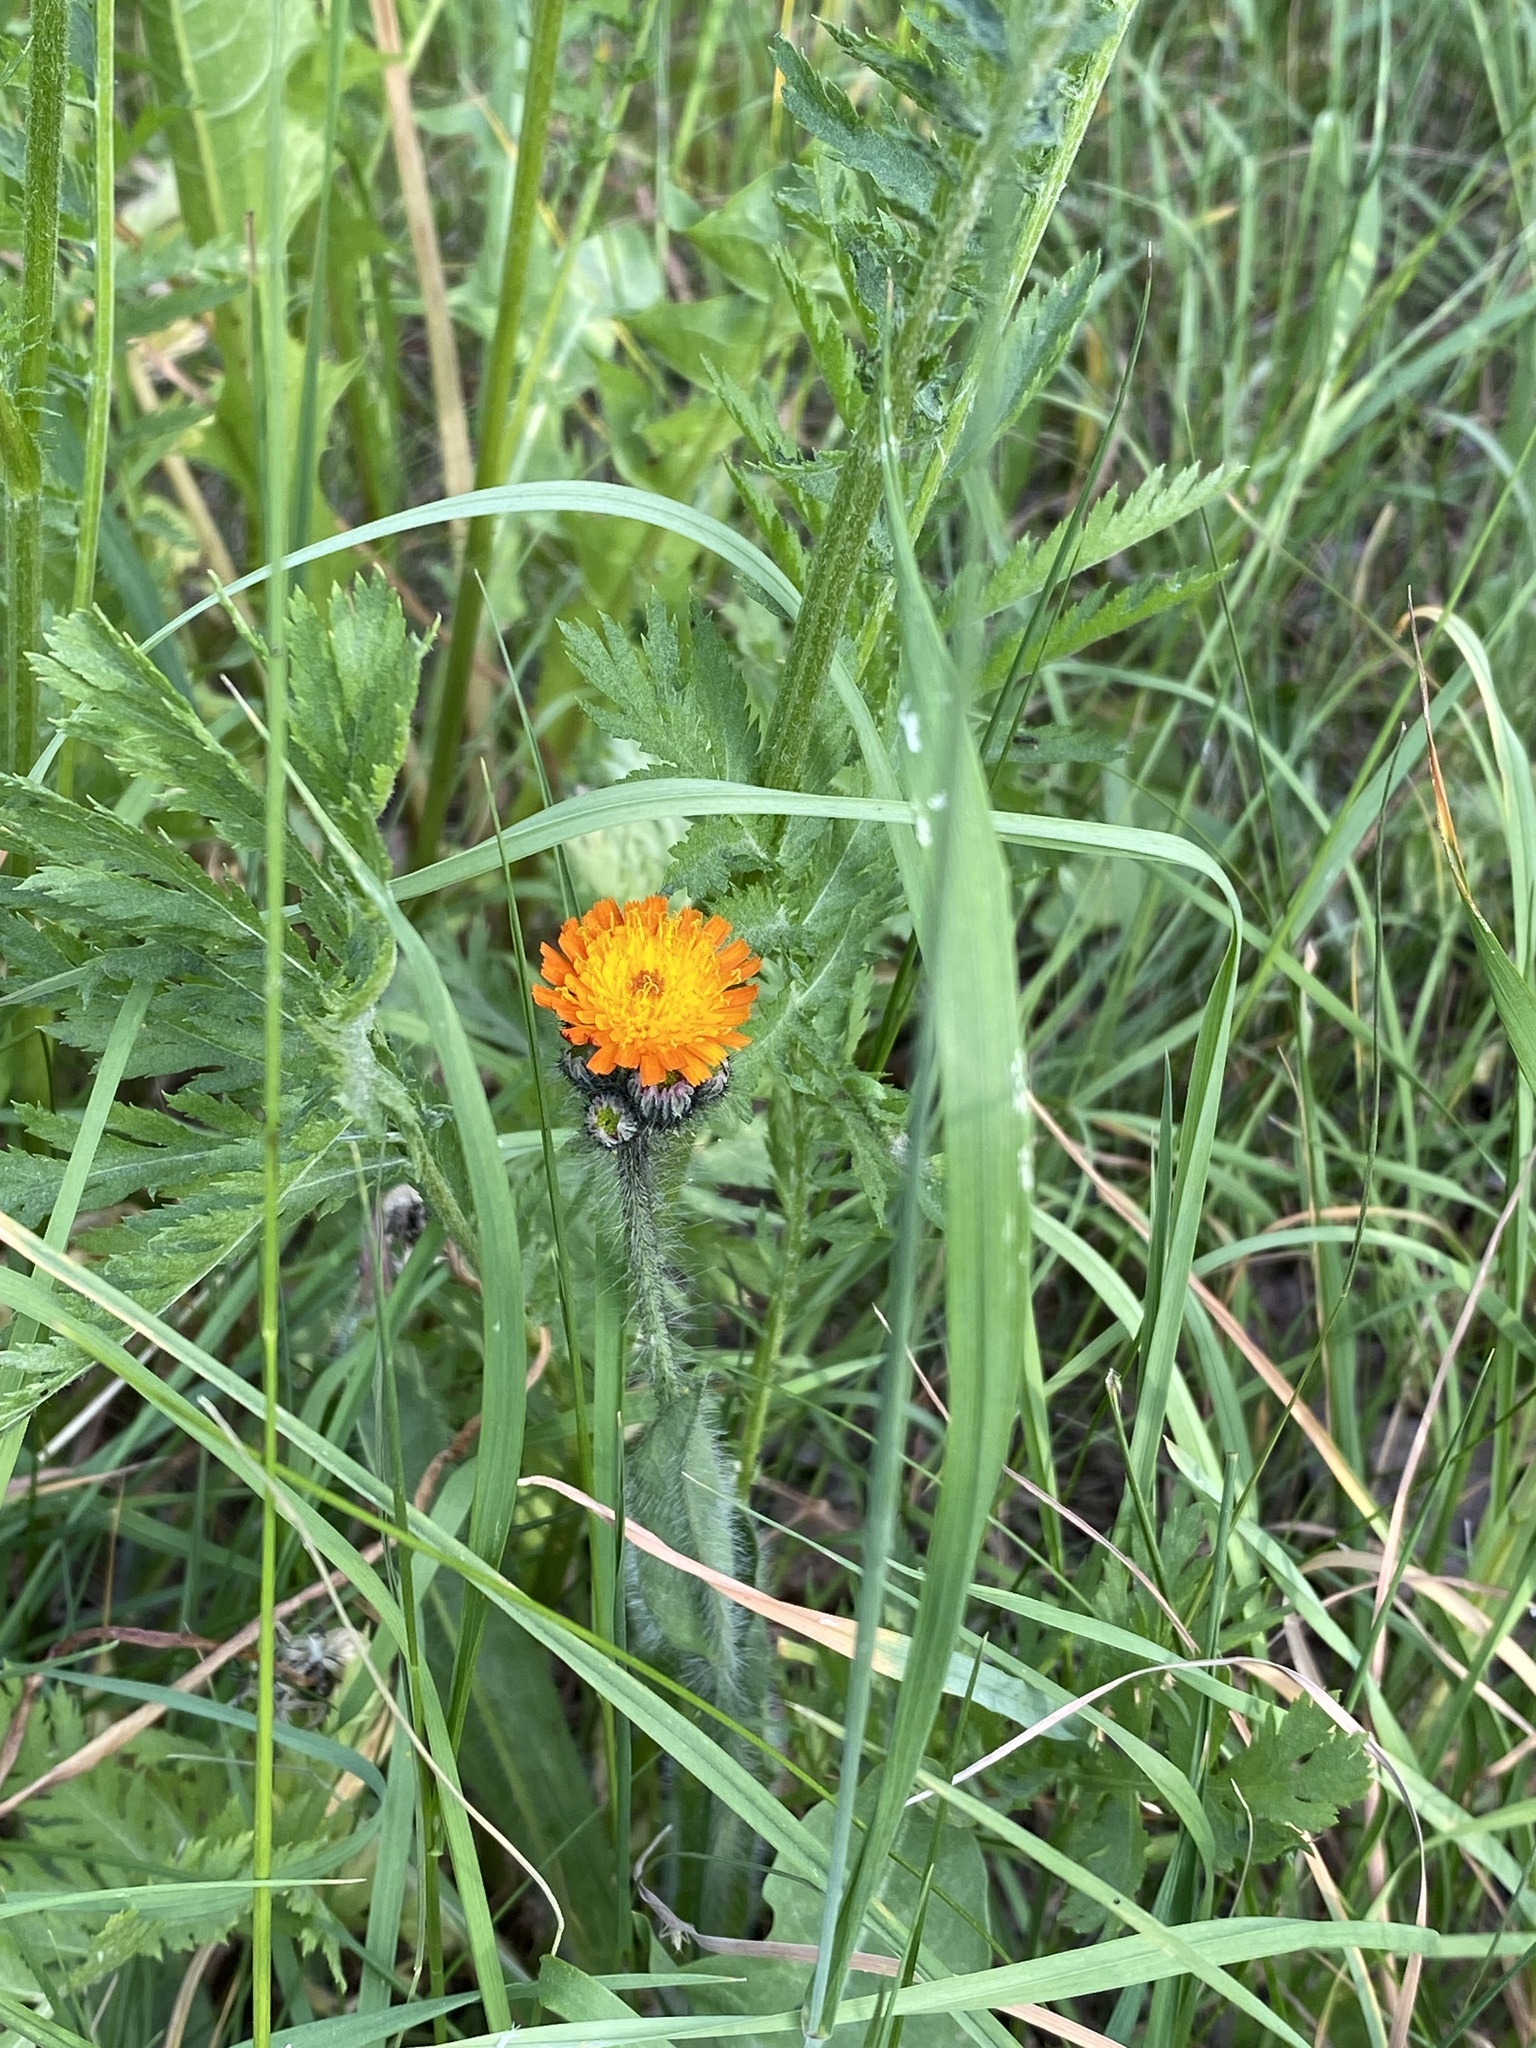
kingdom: Plantae
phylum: Tracheophyta
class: Magnoliopsida
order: Asterales
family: Asteraceae
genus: Pilosella
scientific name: Pilosella aurantiaca
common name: Fox-and-cubs
